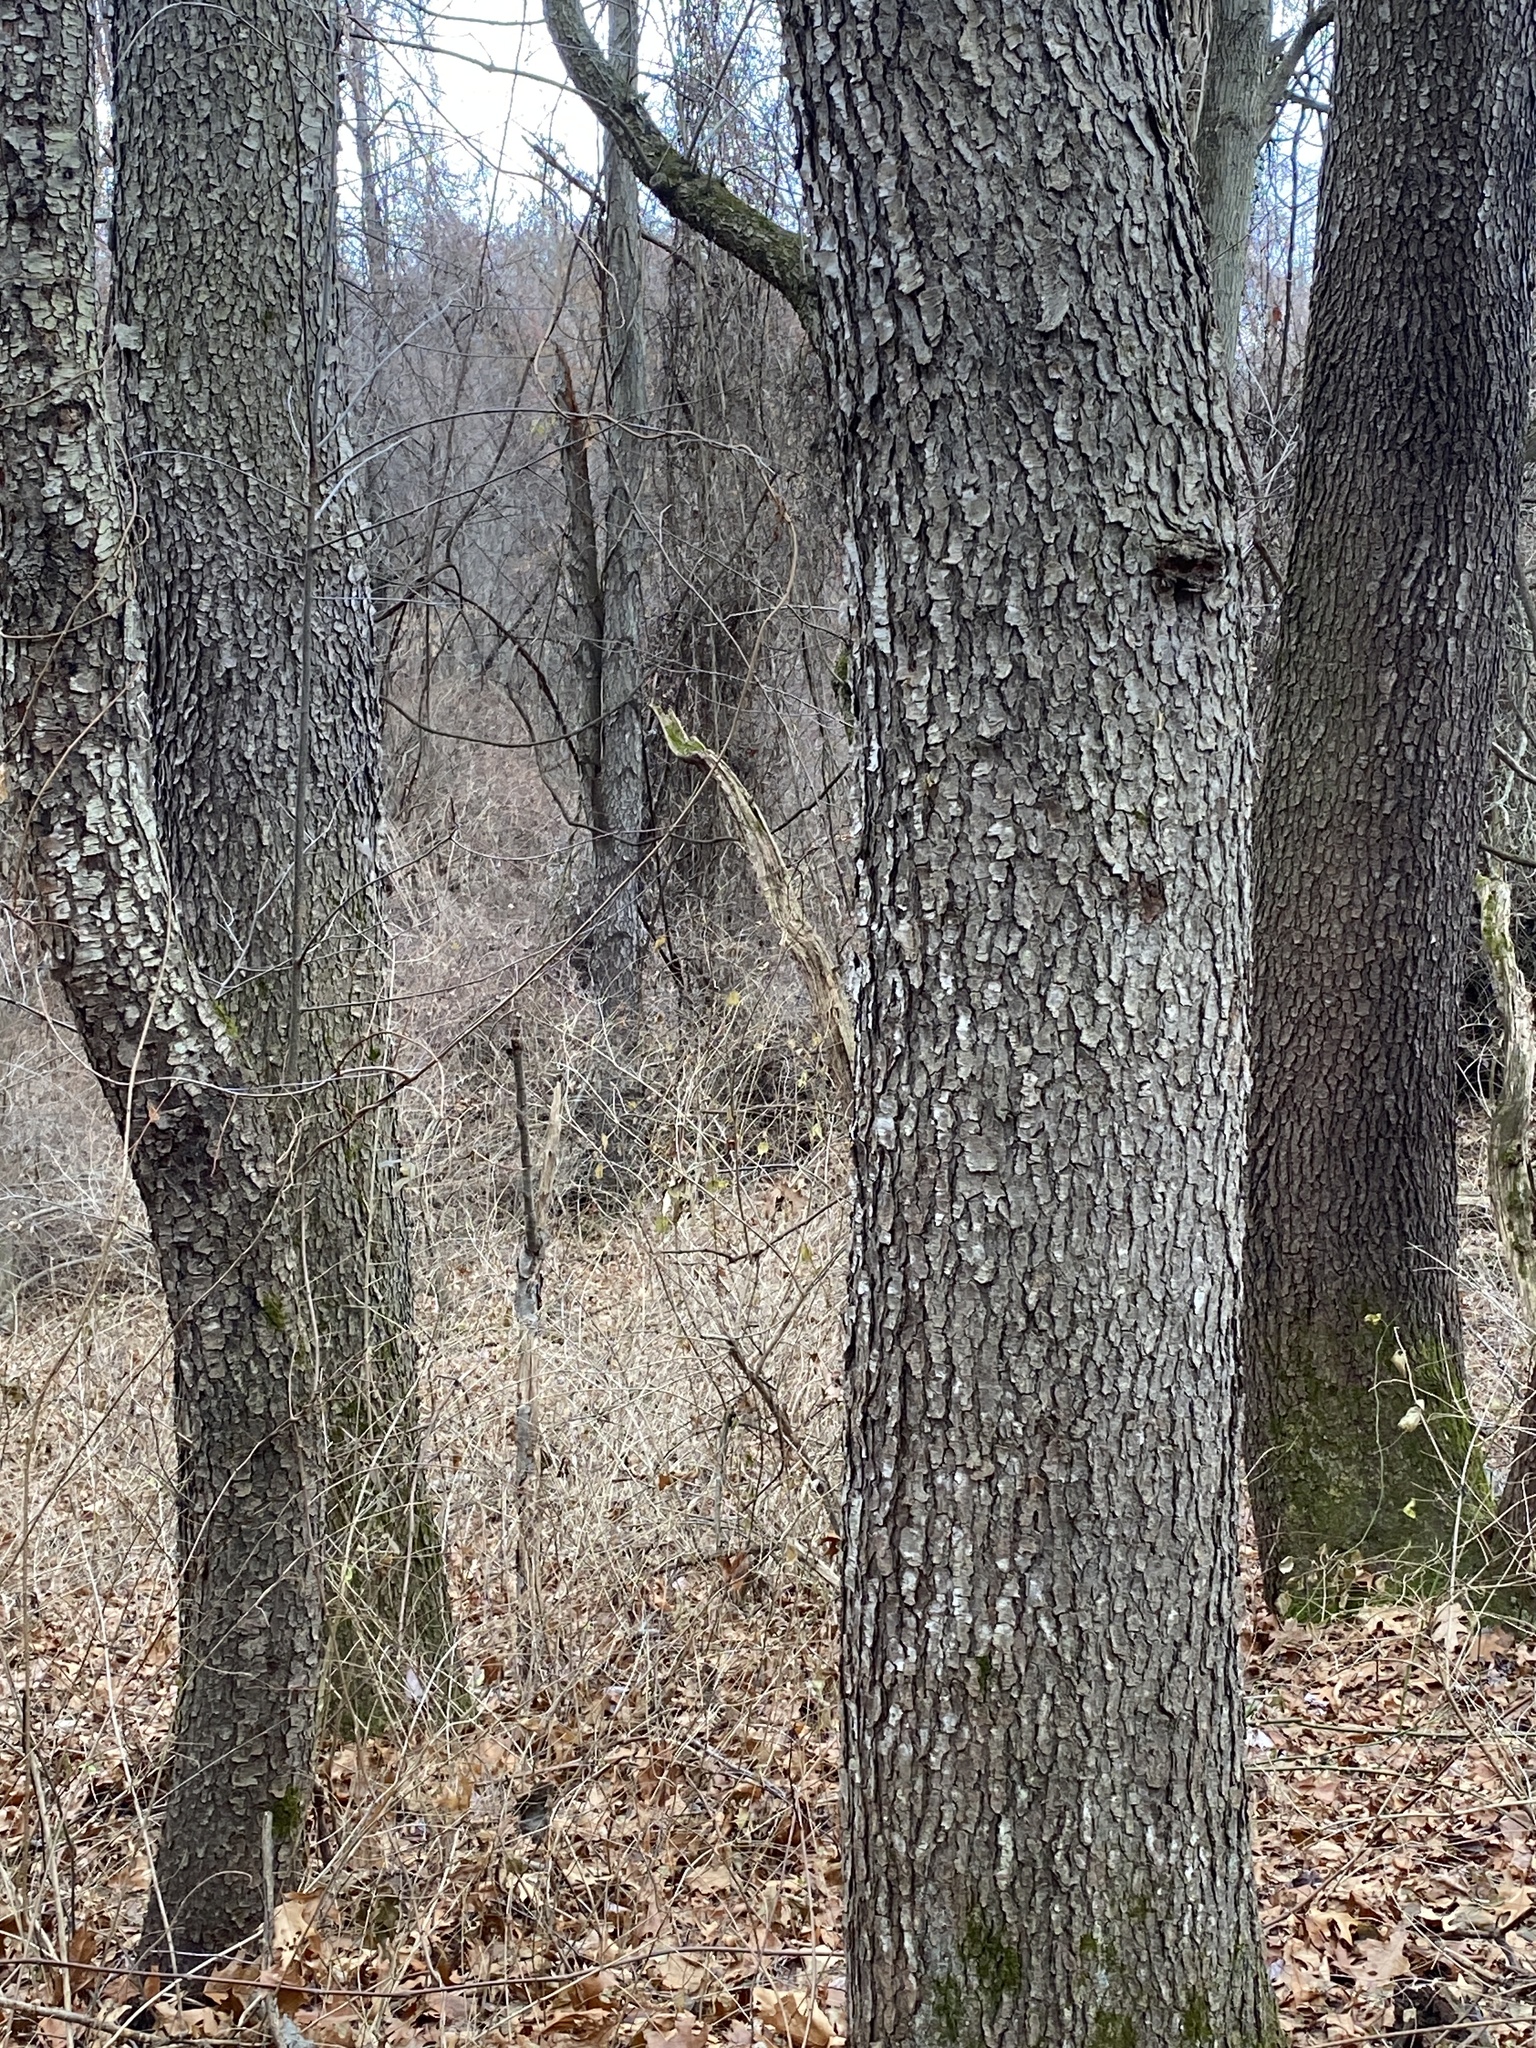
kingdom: Plantae
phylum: Tracheophyta
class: Magnoliopsida
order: Rosales
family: Rosaceae
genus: Prunus
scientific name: Prunus serotina
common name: Black cherry
